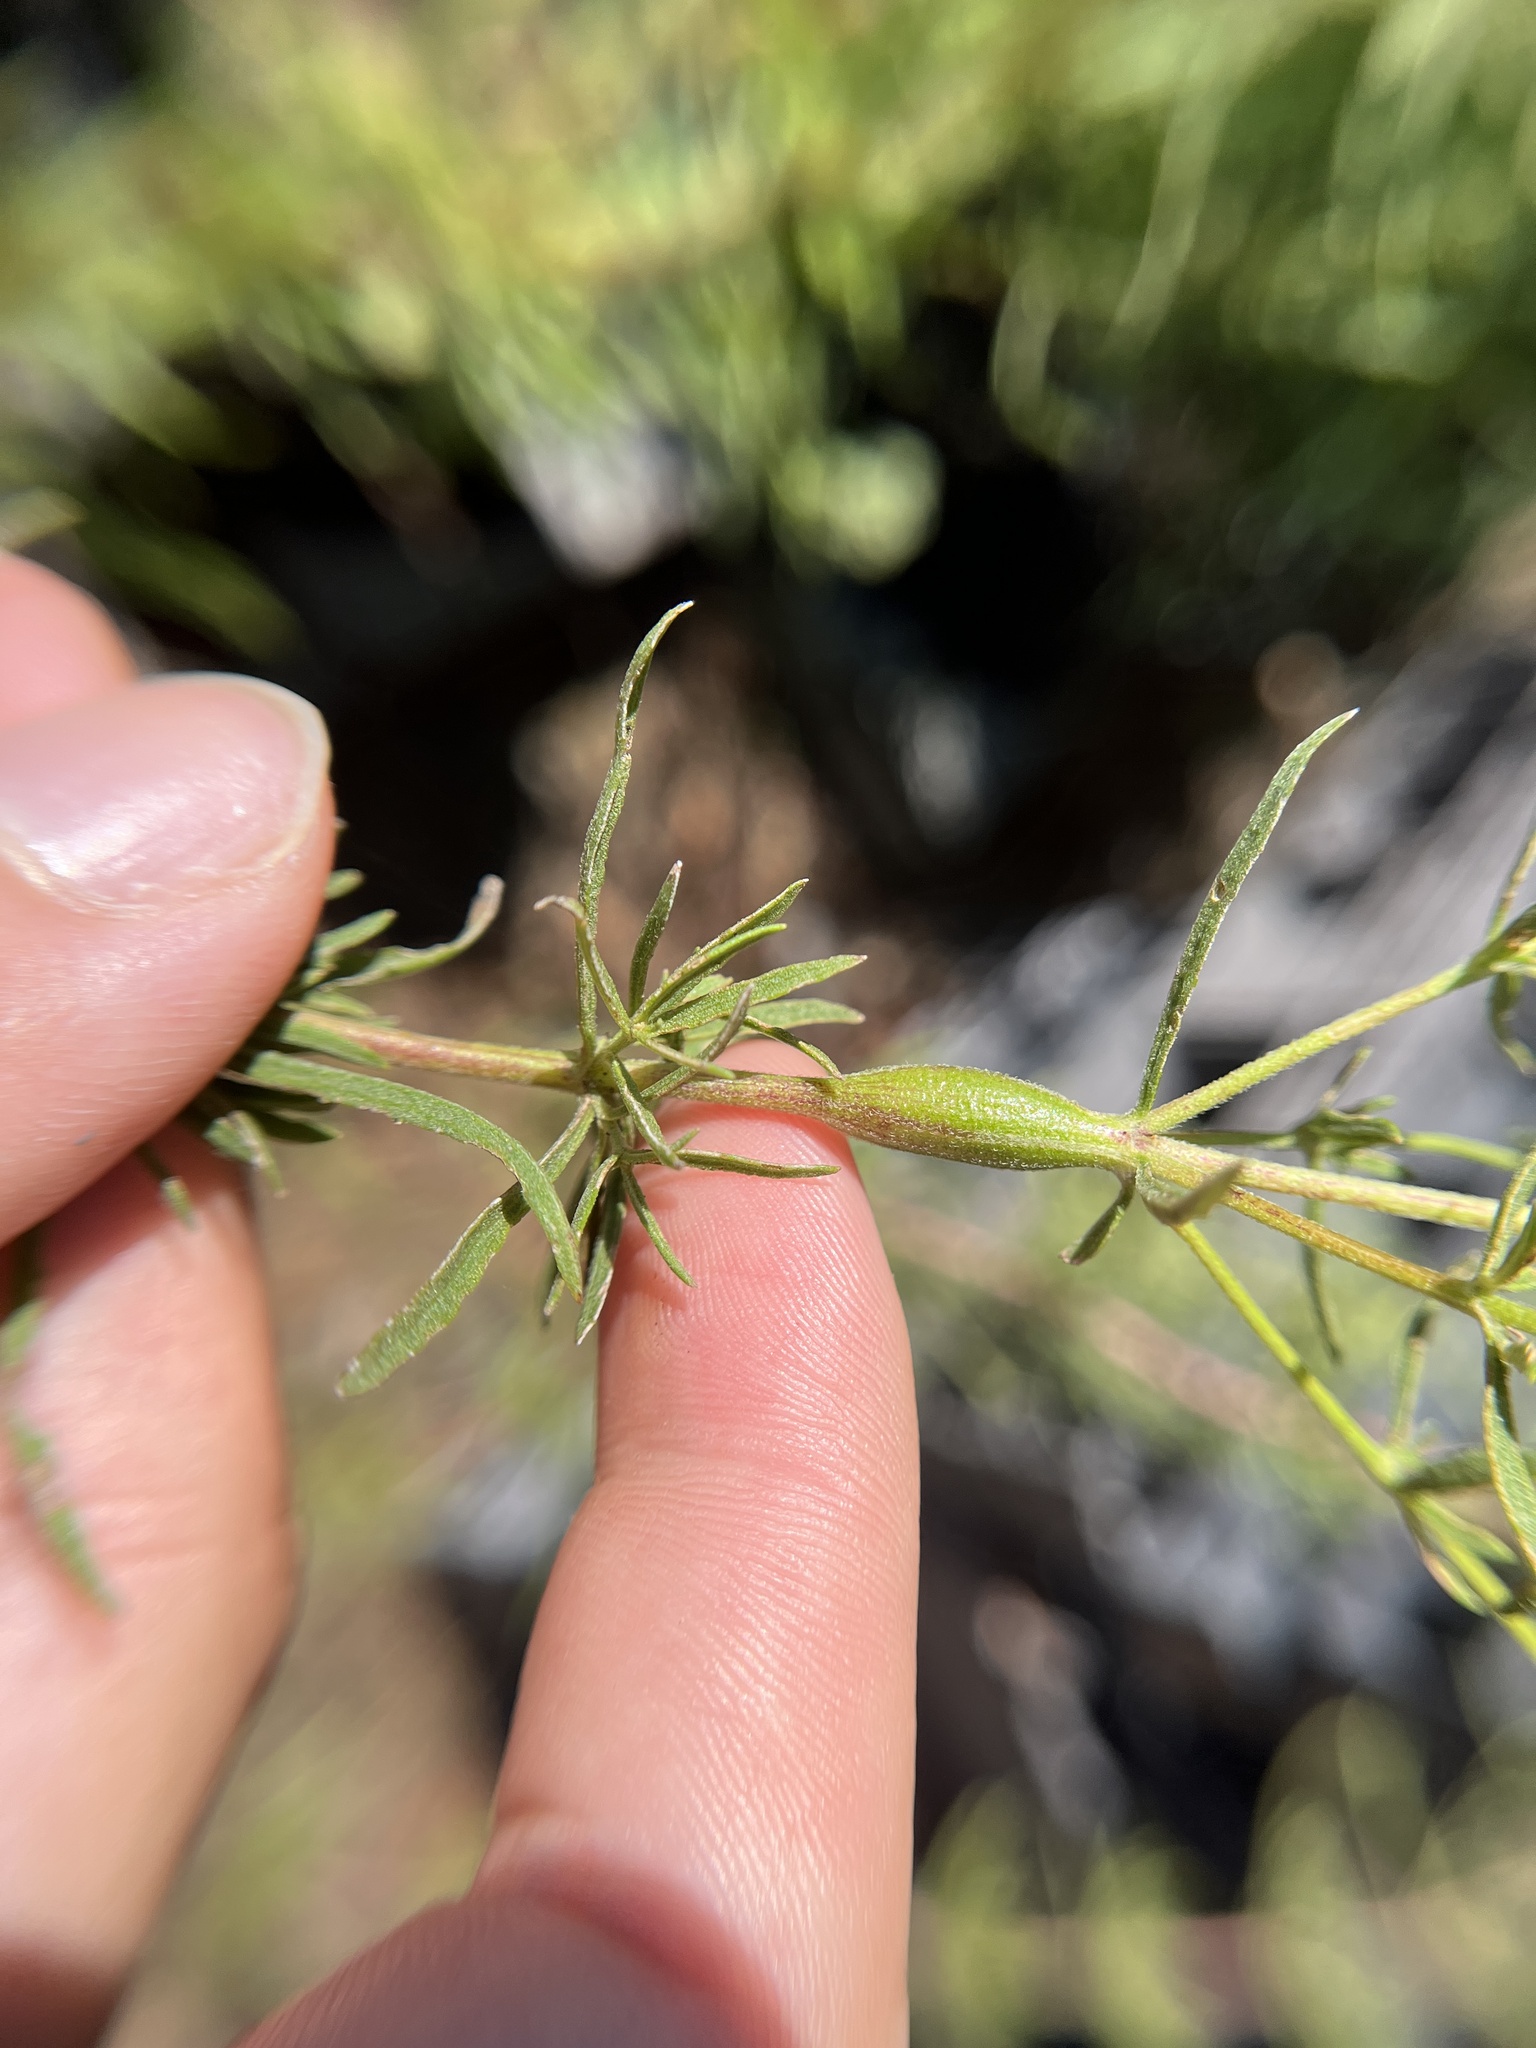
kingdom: Animalia
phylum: Arthropoda
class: Insecta
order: Diptera
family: Cecidomyiidae
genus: Neolasioptera
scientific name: Neolasioptera perfoliata
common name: Boneset stem midge
